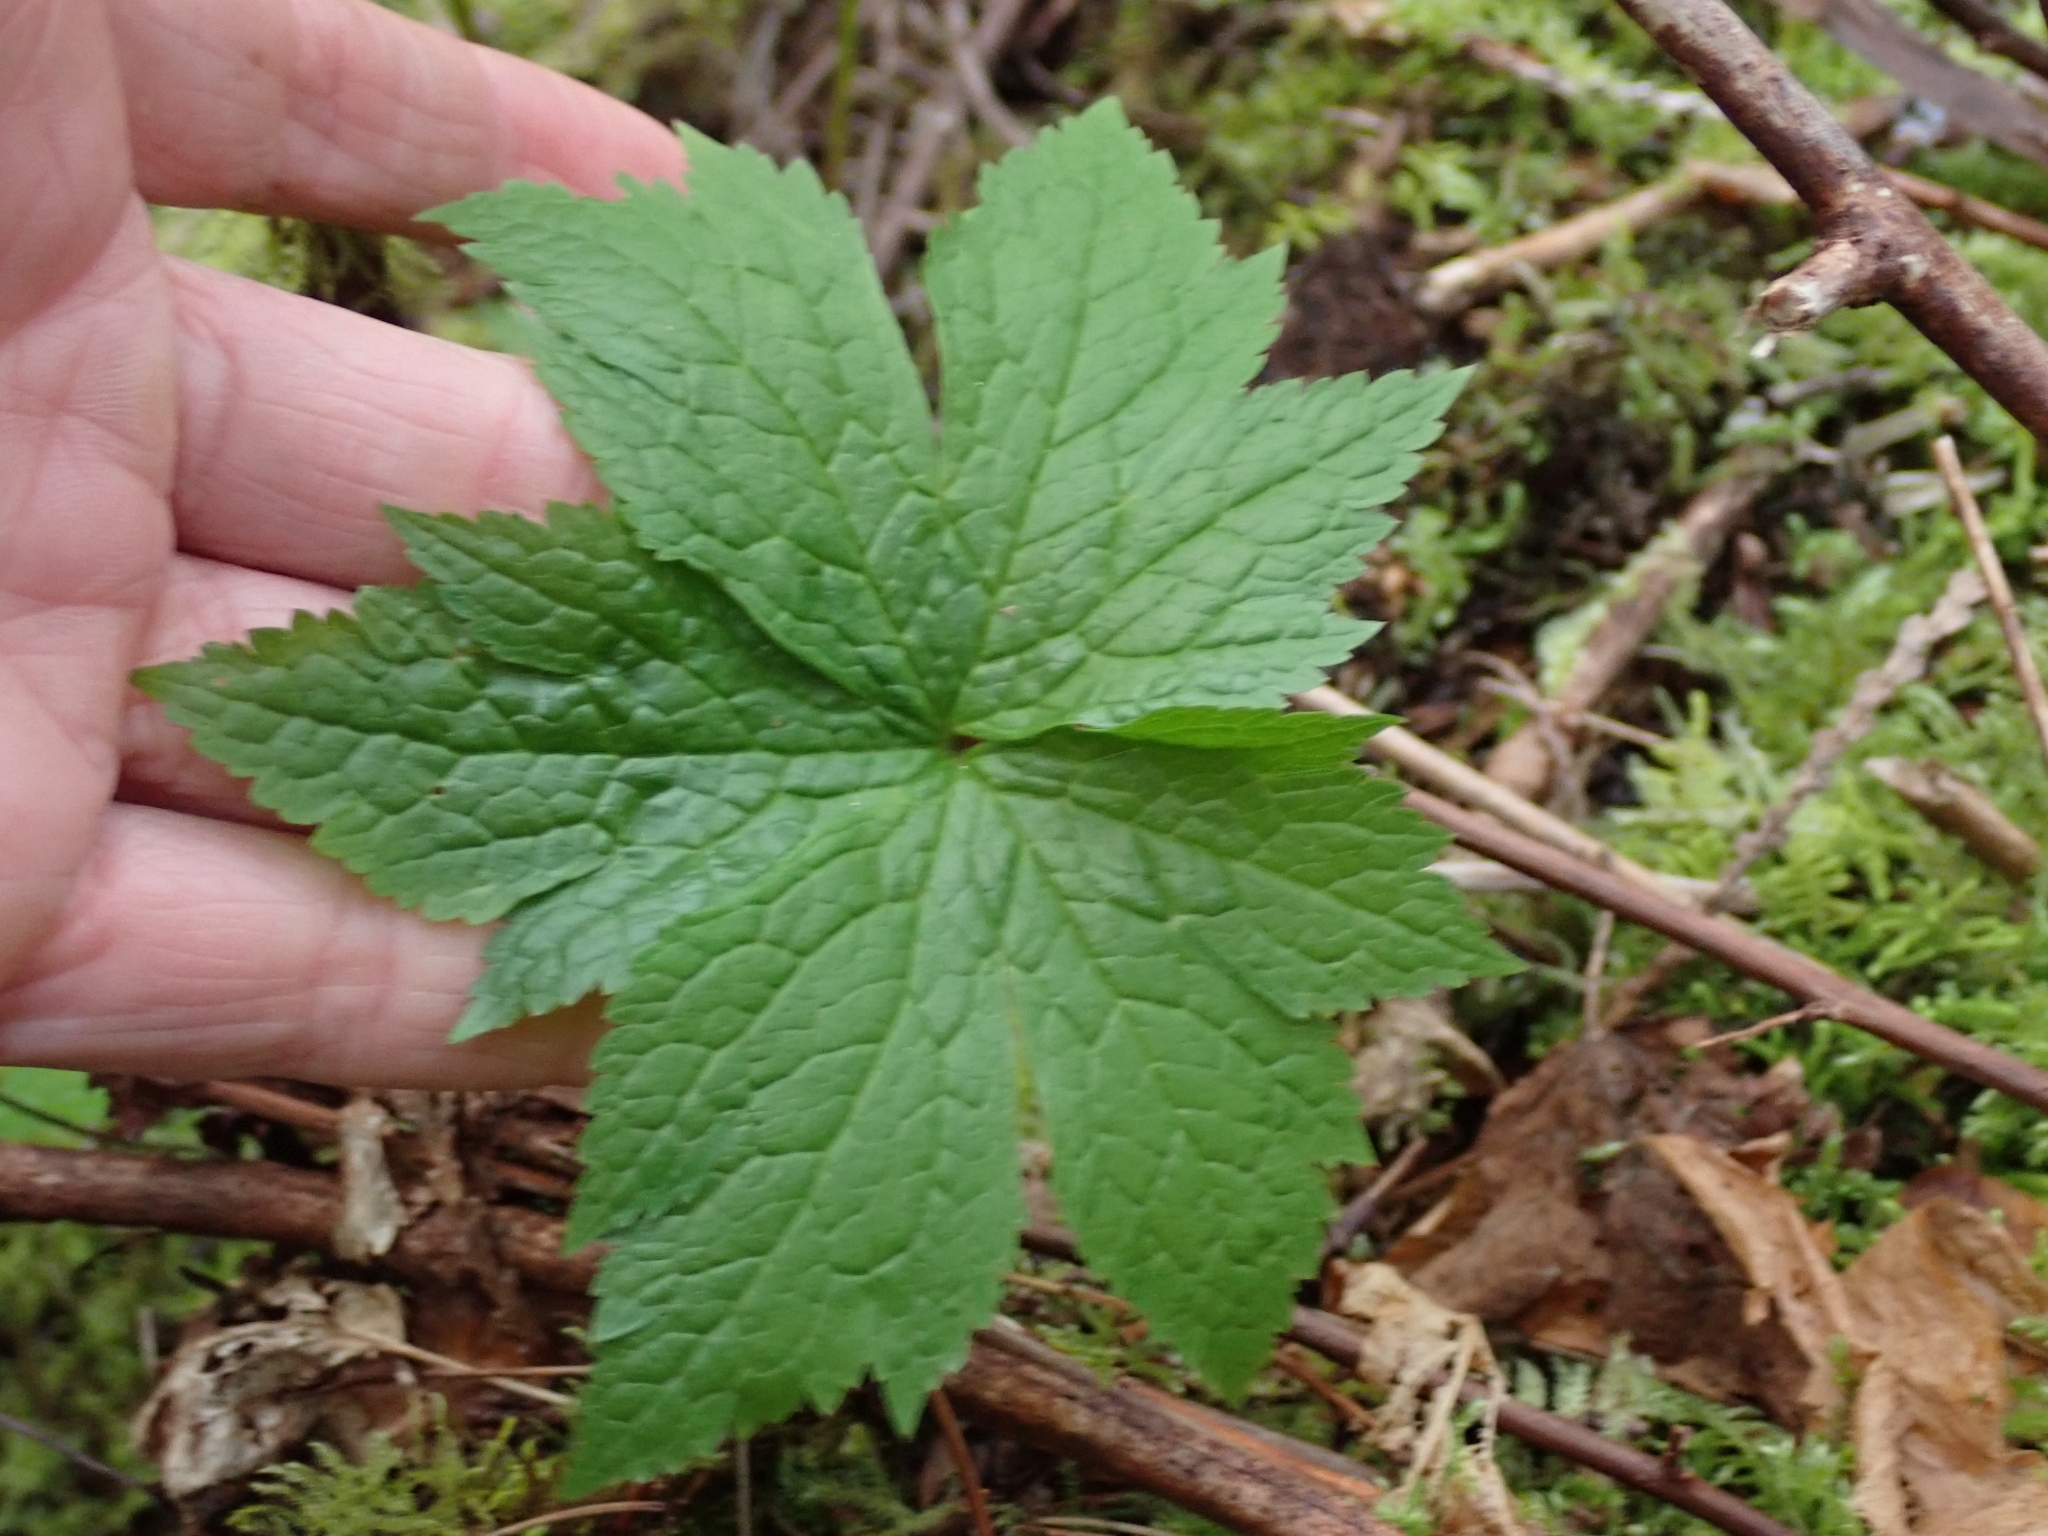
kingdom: Plantae
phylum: Tracheophyta
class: Magnoliopsida
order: Ranunculales
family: Ranunculaceae
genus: Trautvetteria
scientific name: Trautvetteria carolinensis
